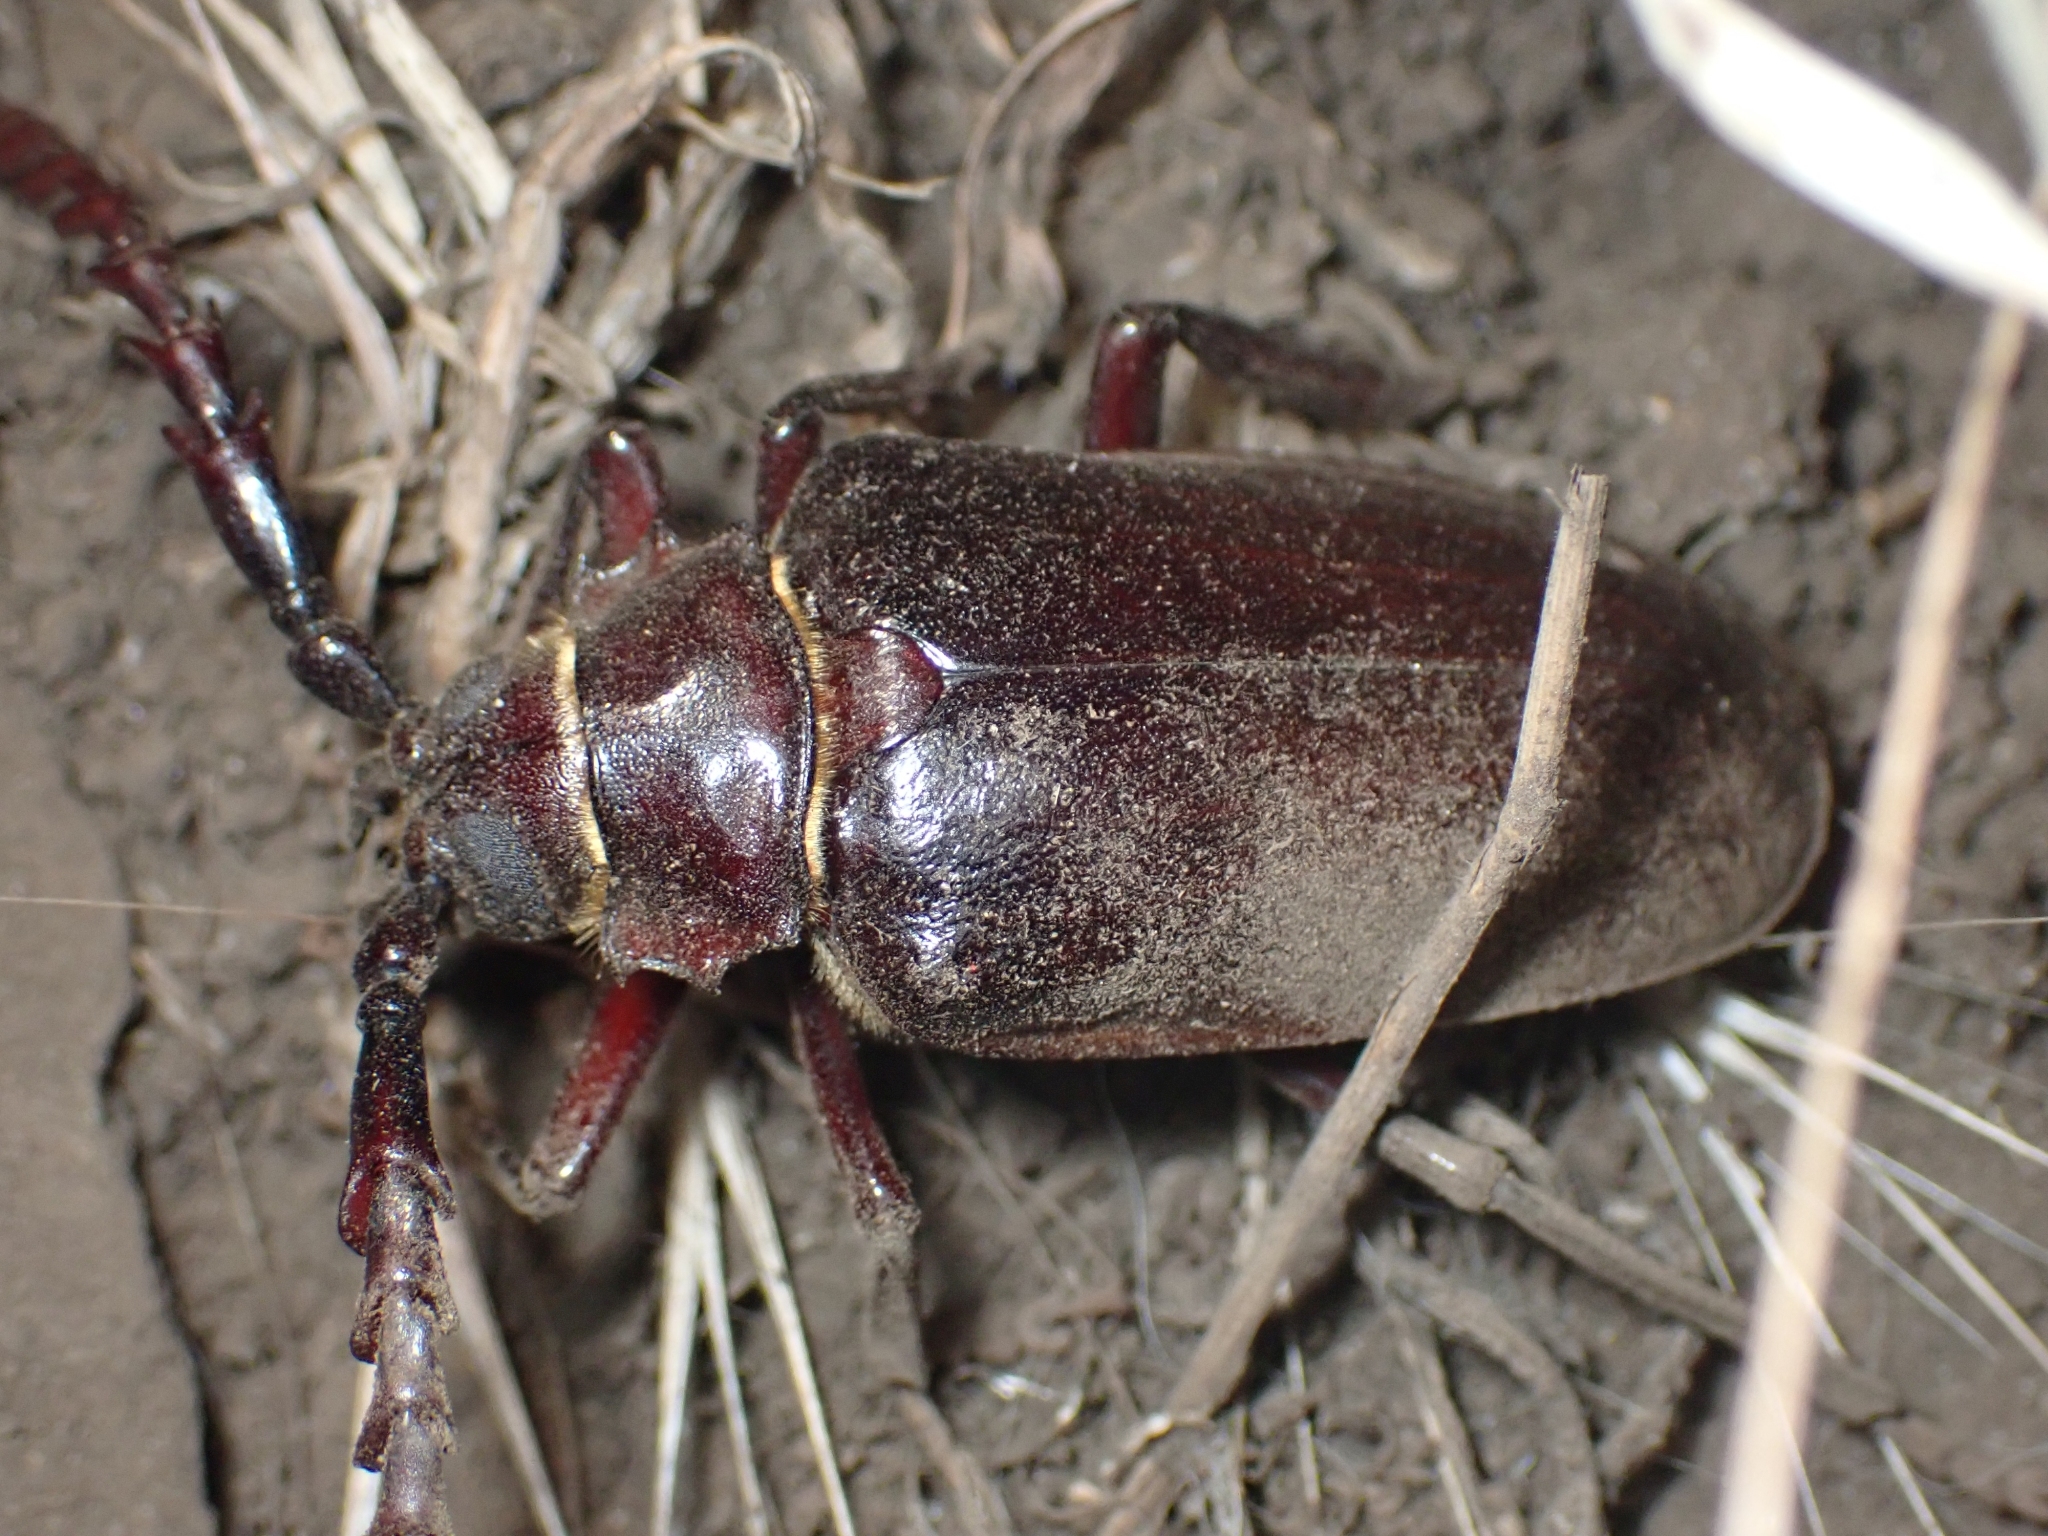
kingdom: Animalia
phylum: Arthropoda
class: Insecta
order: Coleoptera
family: Cerambycidae
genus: Prionus
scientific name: Prionus californicus
